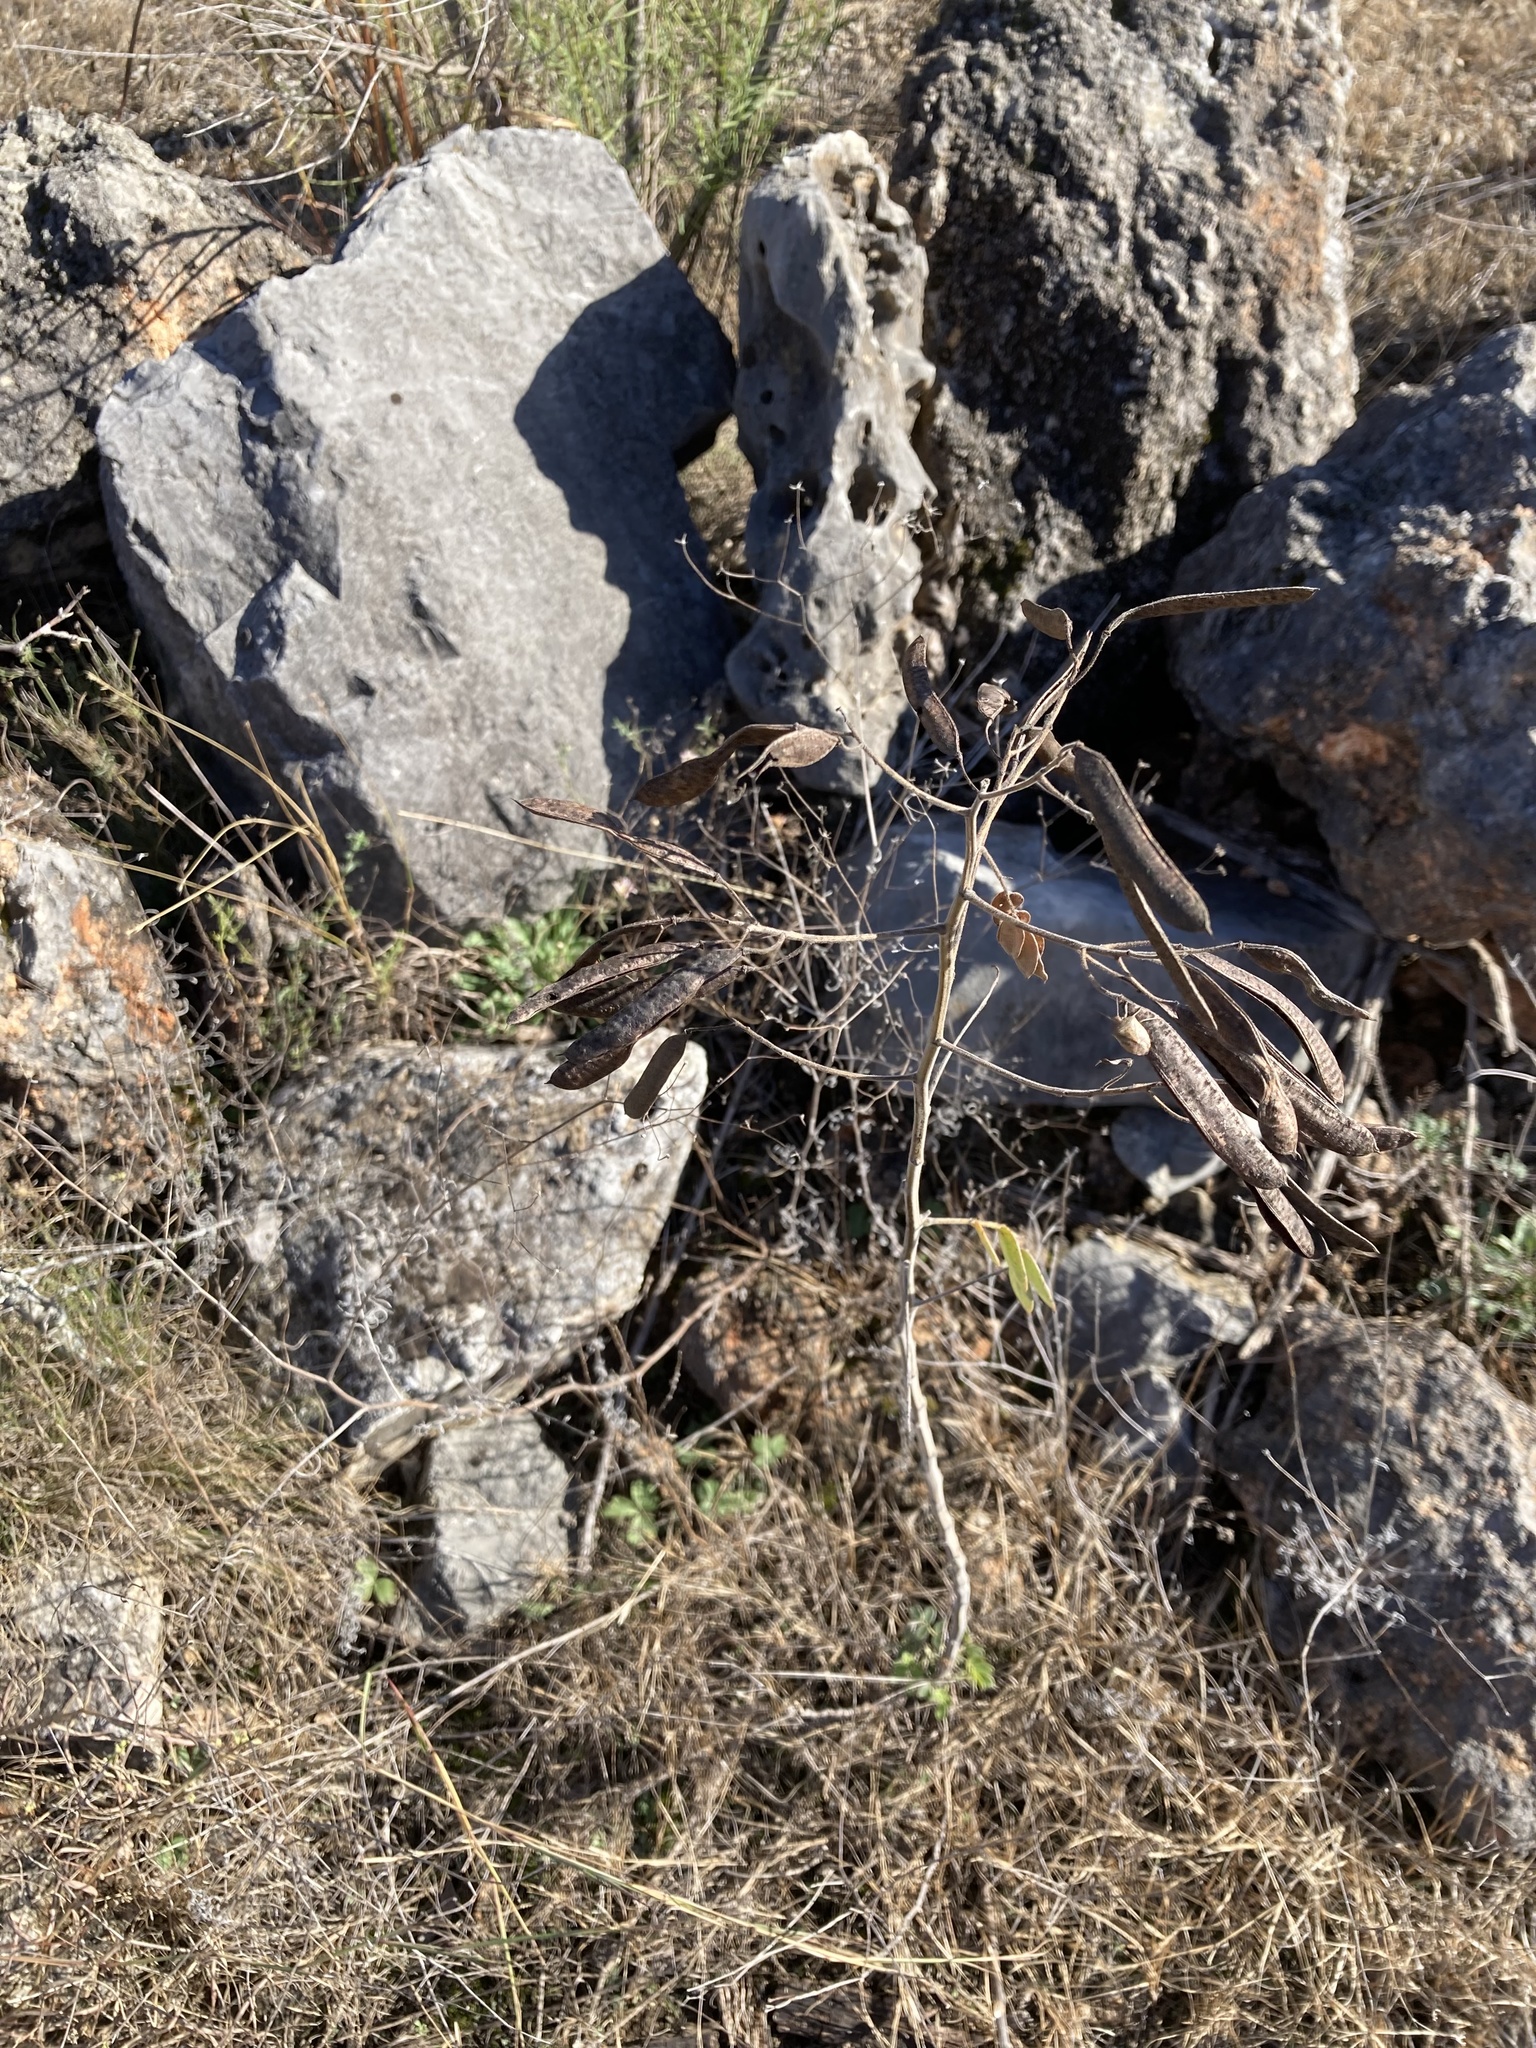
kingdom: Plantae
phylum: Tracheophyta
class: Magnoliopsida
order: Fabales
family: Fabaceae
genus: Senna
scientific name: Senna lindheimeriana
